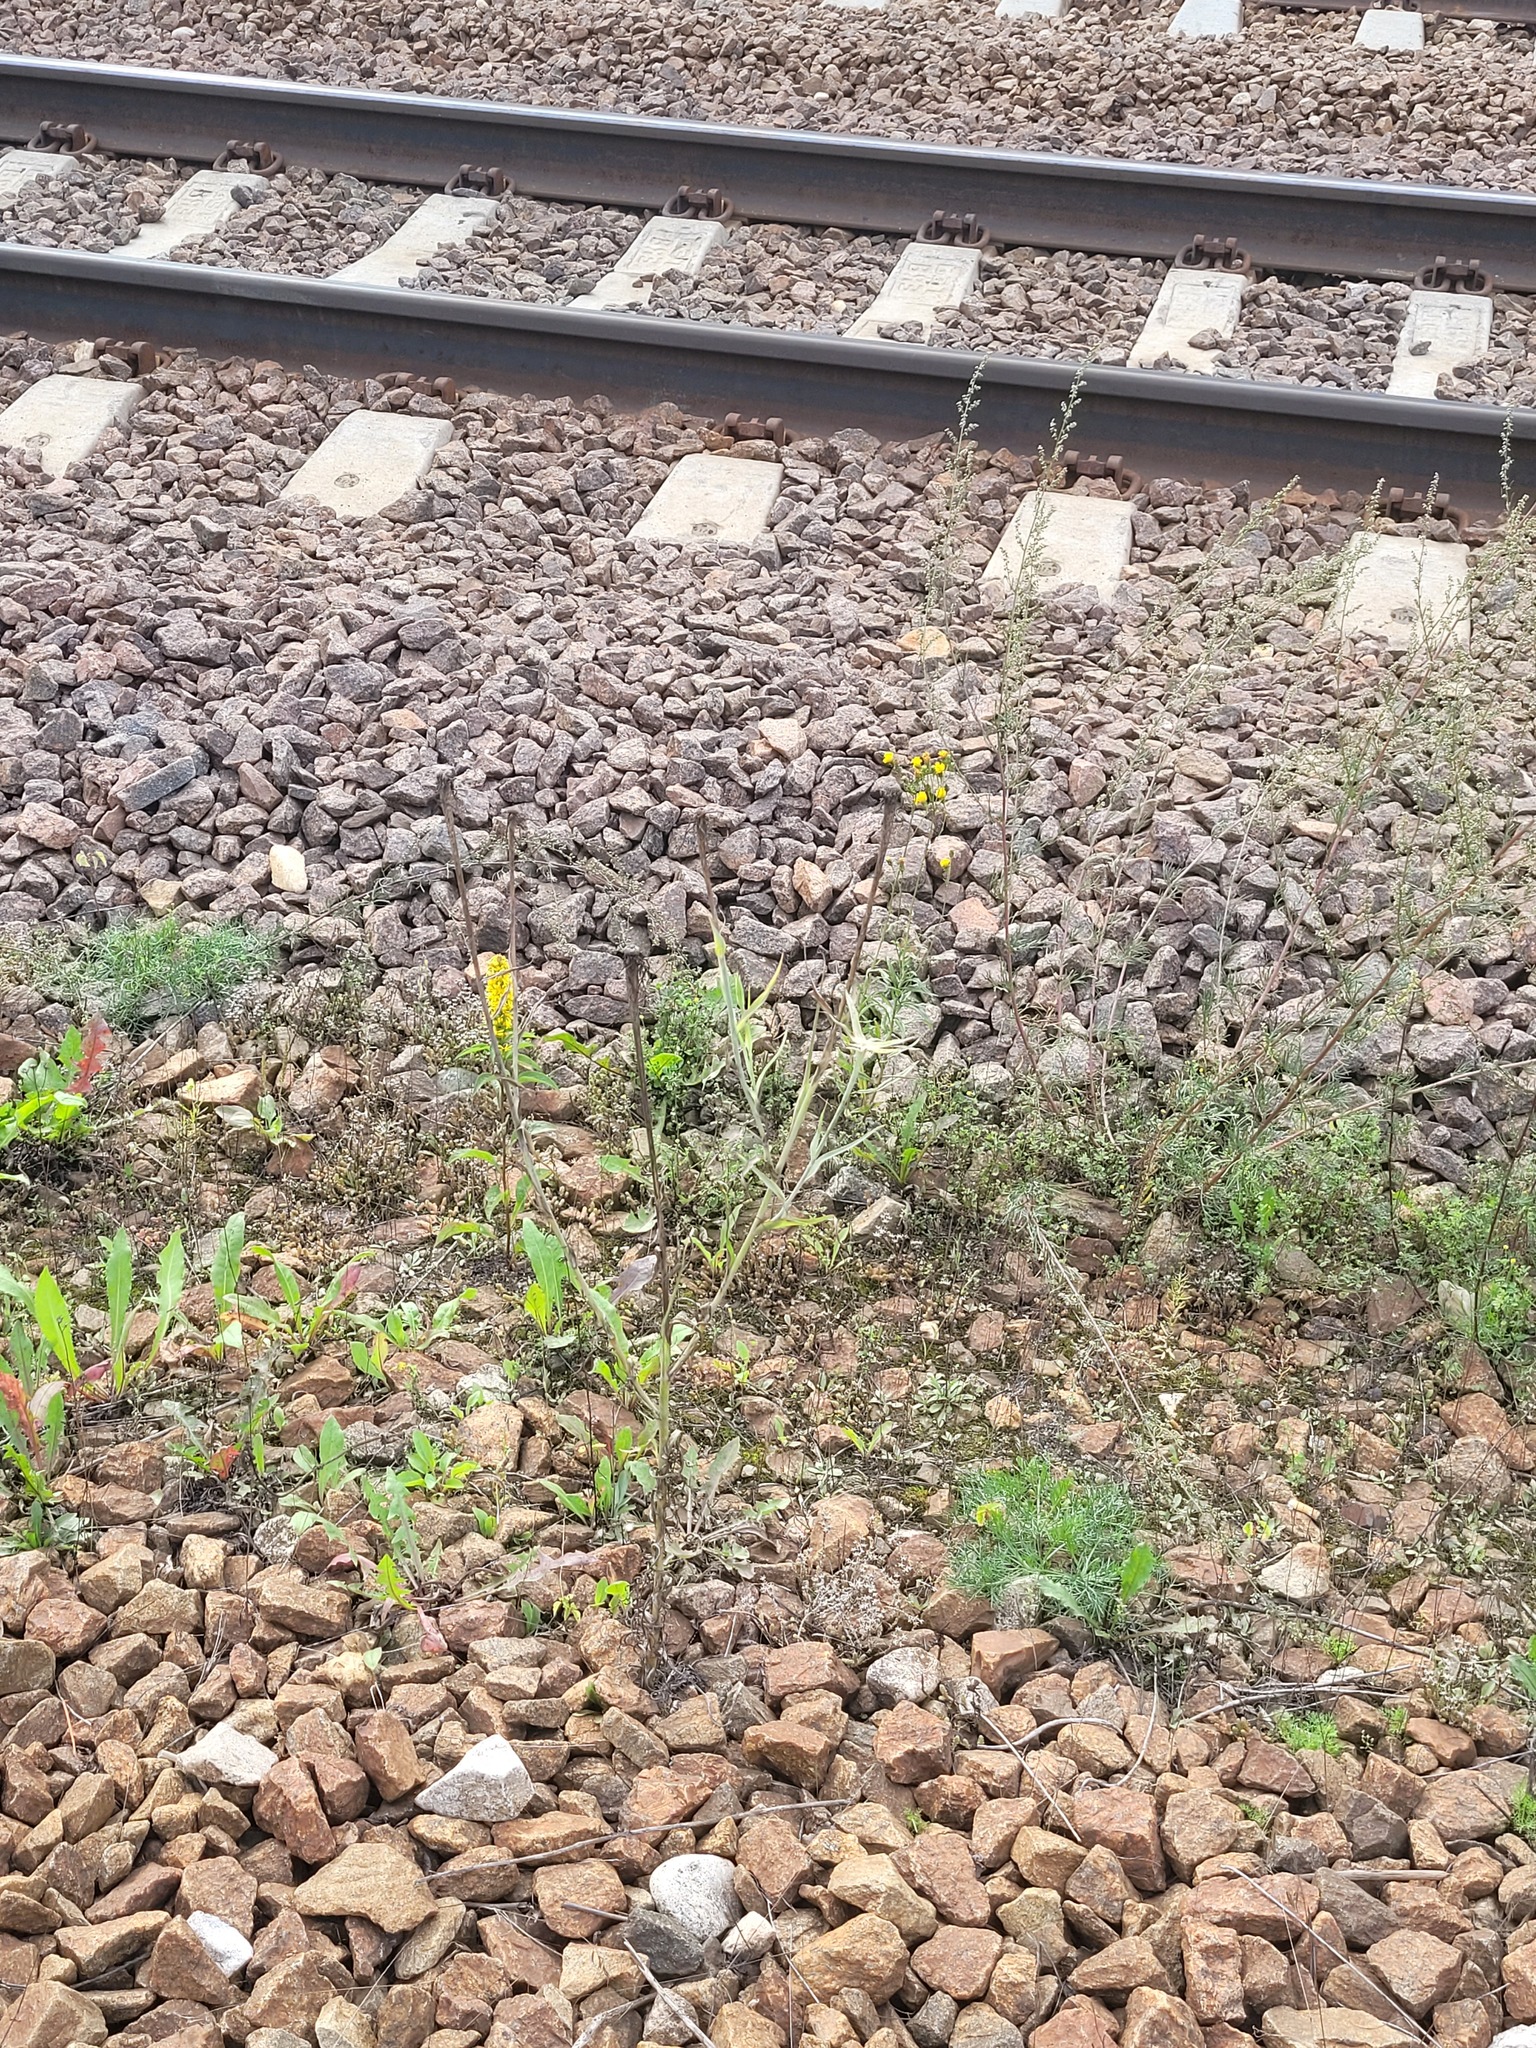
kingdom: Plantae
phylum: Tracheophyta
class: Magnoliopsida
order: Asterales
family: Asteraceae
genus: Tragopogon
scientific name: Tragopogon dubius
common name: Yellow salsify
